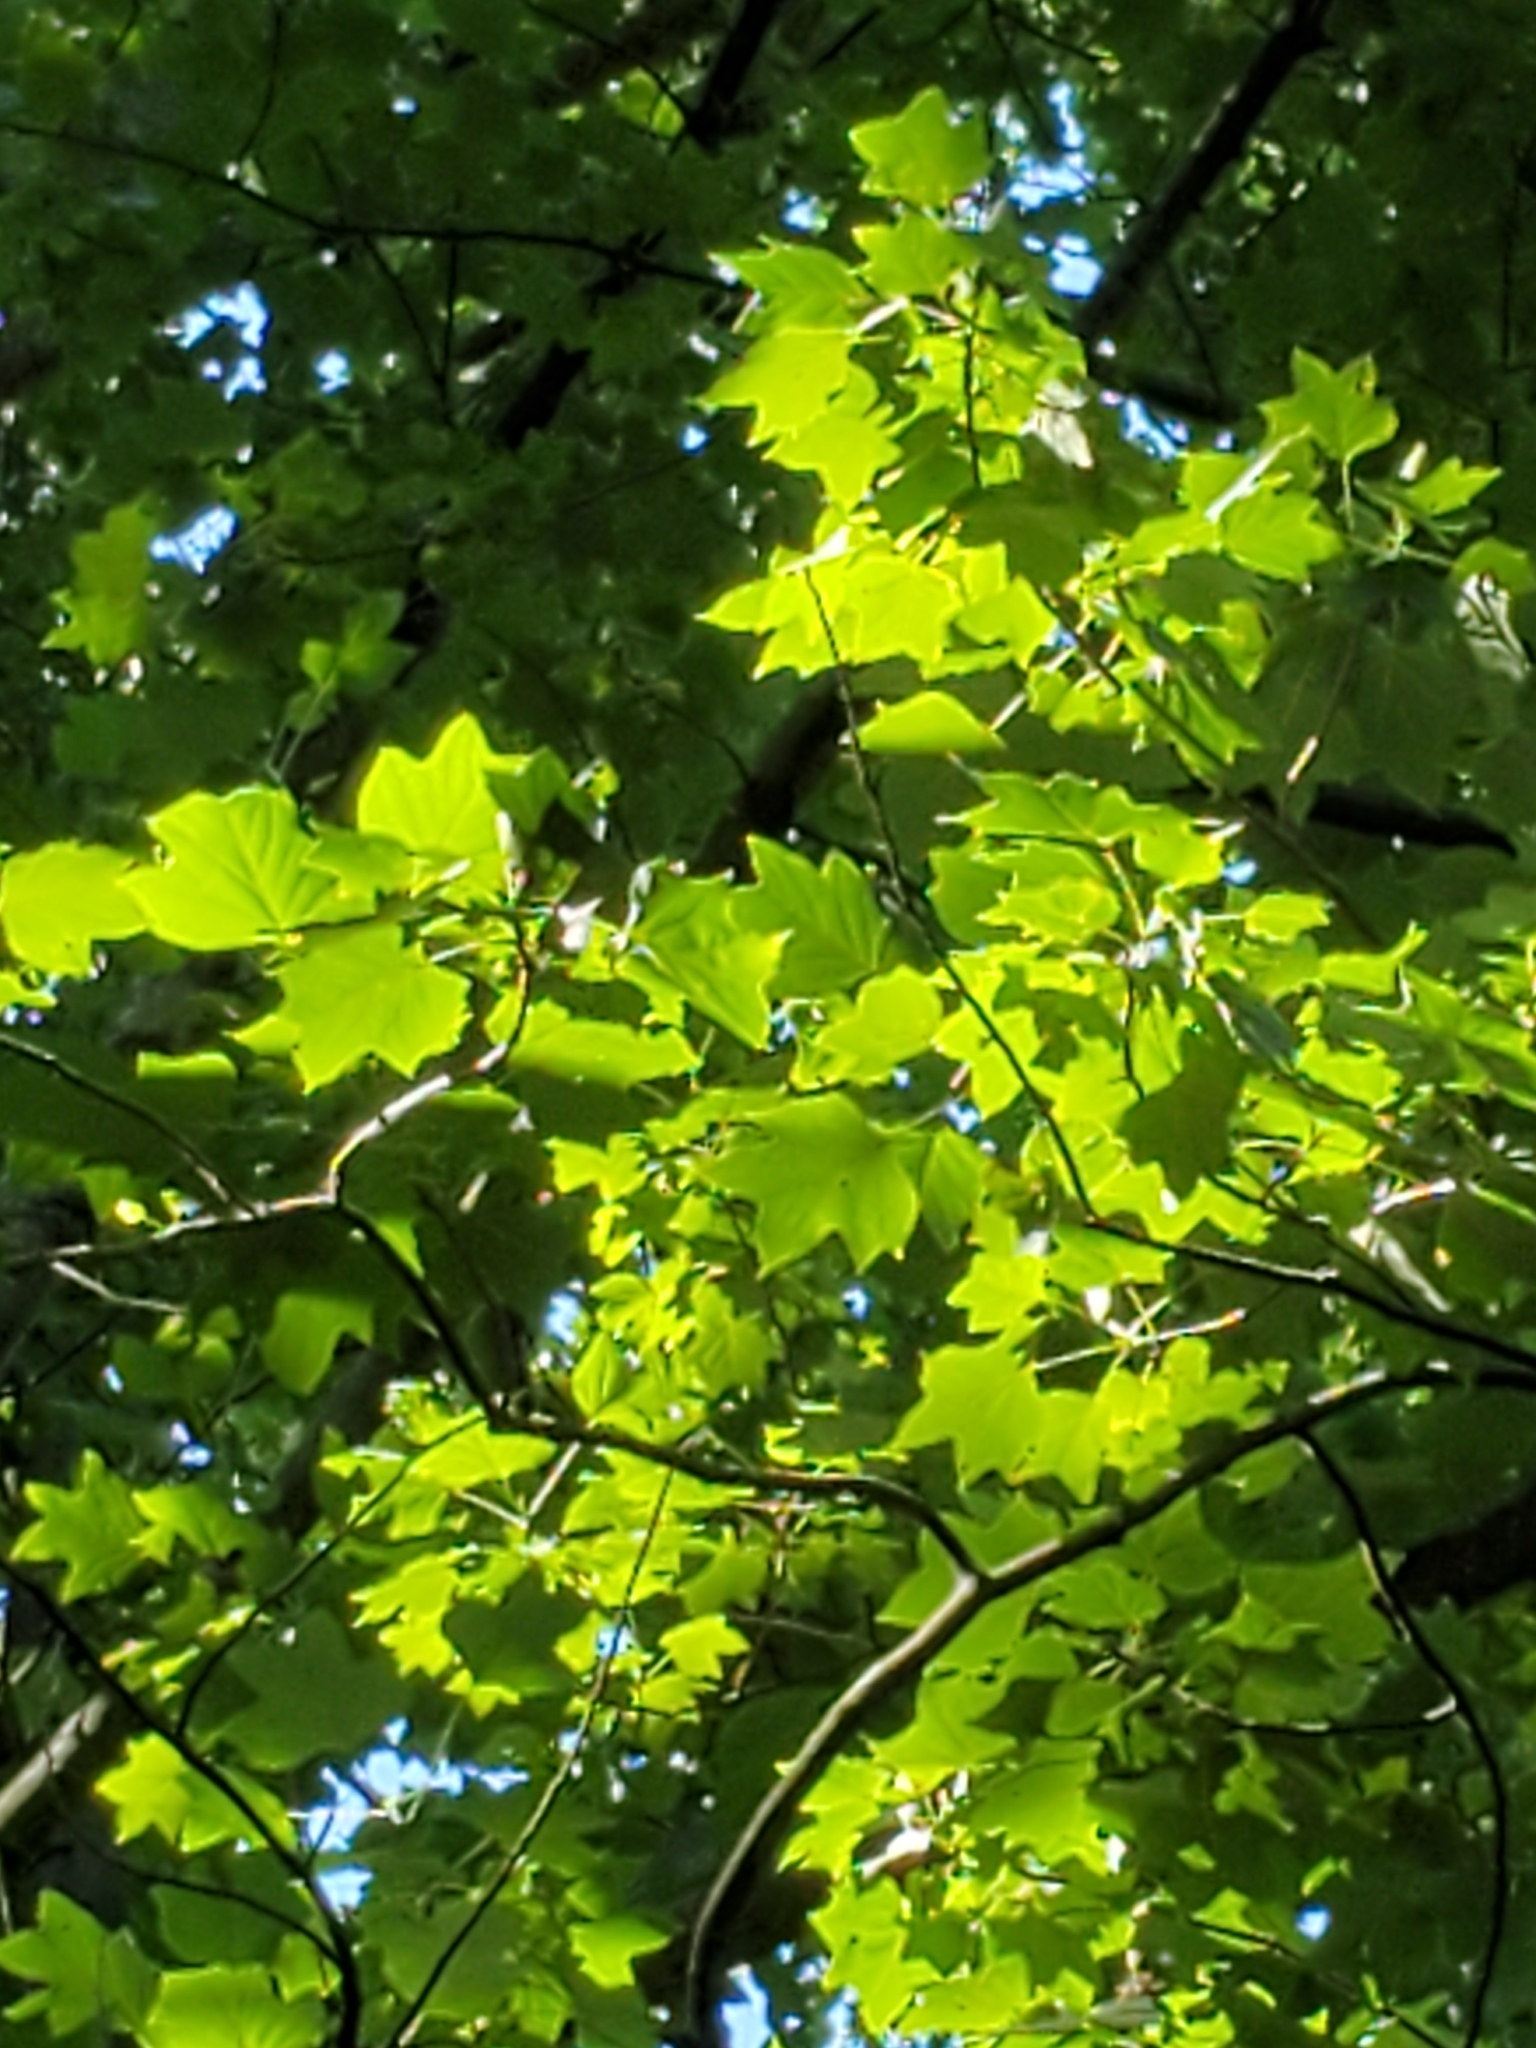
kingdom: Plantae
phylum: Tracheophyta
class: Magnoliopsida
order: Magnoliales
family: Magnoliaceae
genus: Liriodendron
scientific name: Liriodendron tulipifera
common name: Tulip tree
